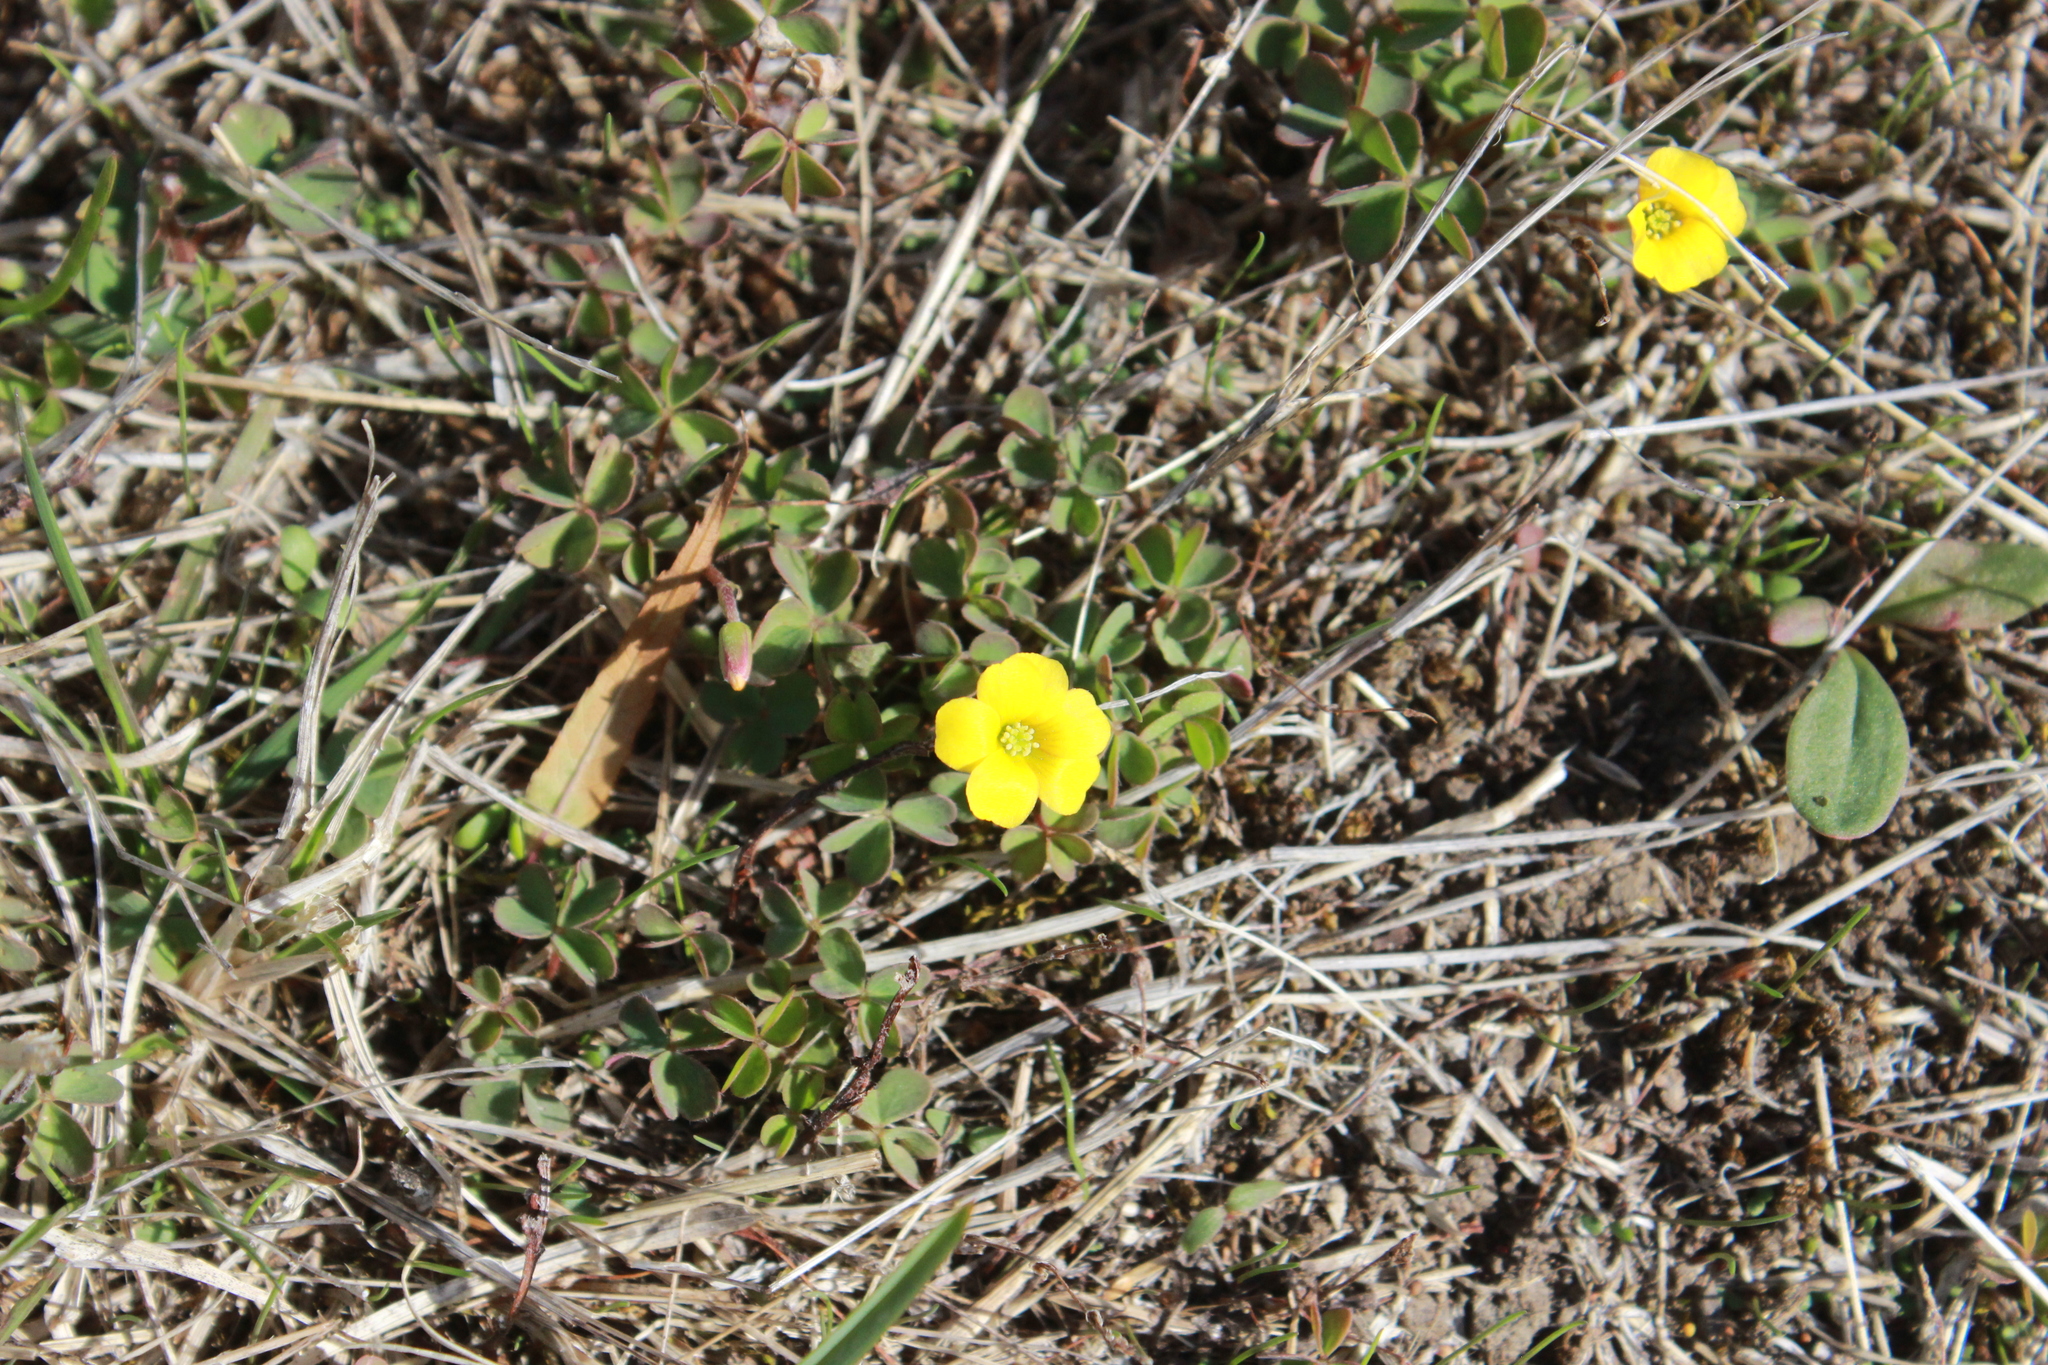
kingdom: Plantae
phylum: Tracheophyta
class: Magnoliopsida
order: Oxalidales
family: Oxalidaceae
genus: Oxalis
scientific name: Oxalis exilis
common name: Least yellow-sorrel
